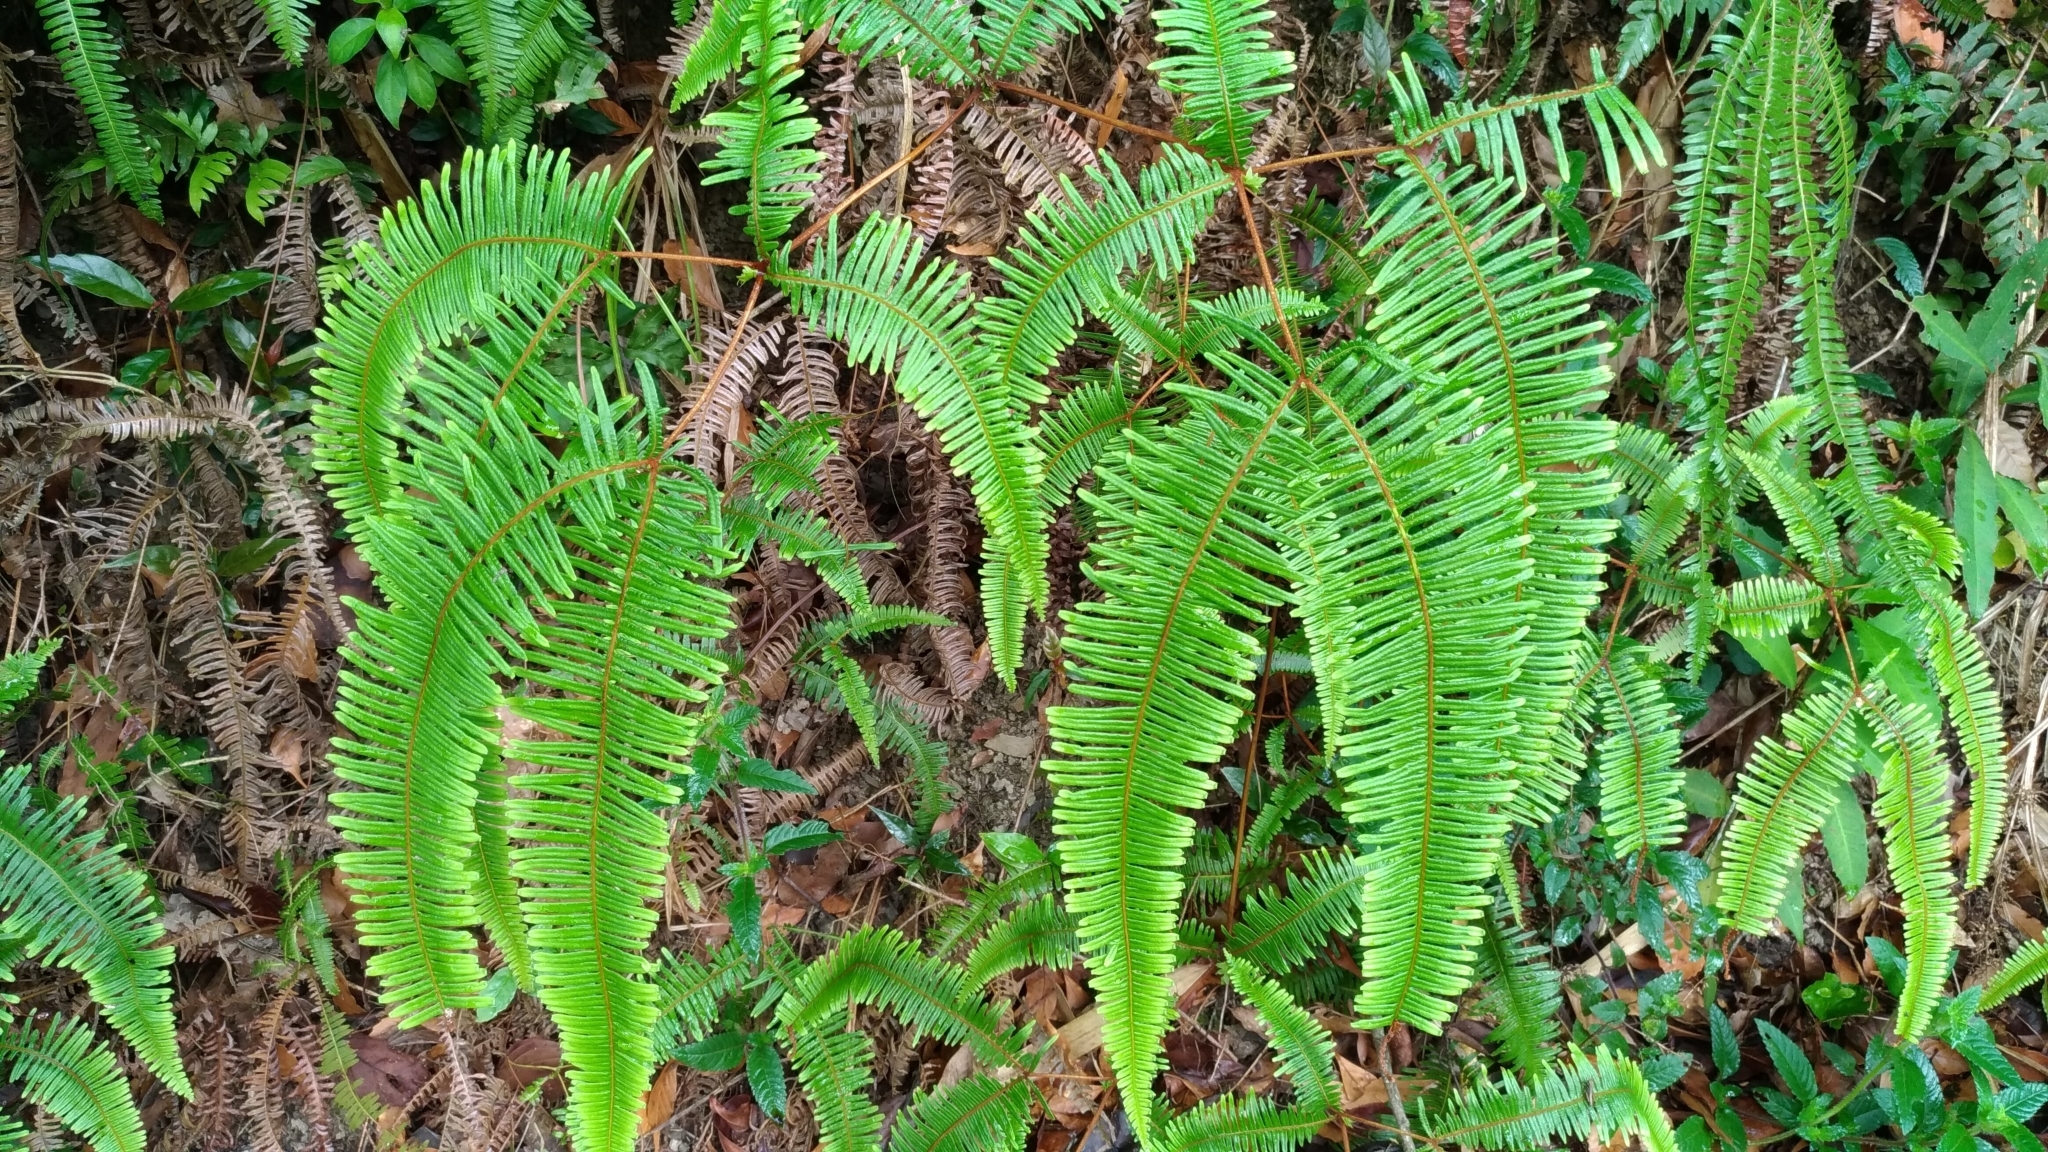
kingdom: Plantae
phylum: Tracheophyta
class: Polypodiopsida
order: Gleicheniales
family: Gleicheniaceae
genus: Dicranopteris
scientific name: Dicranopteris linearis
